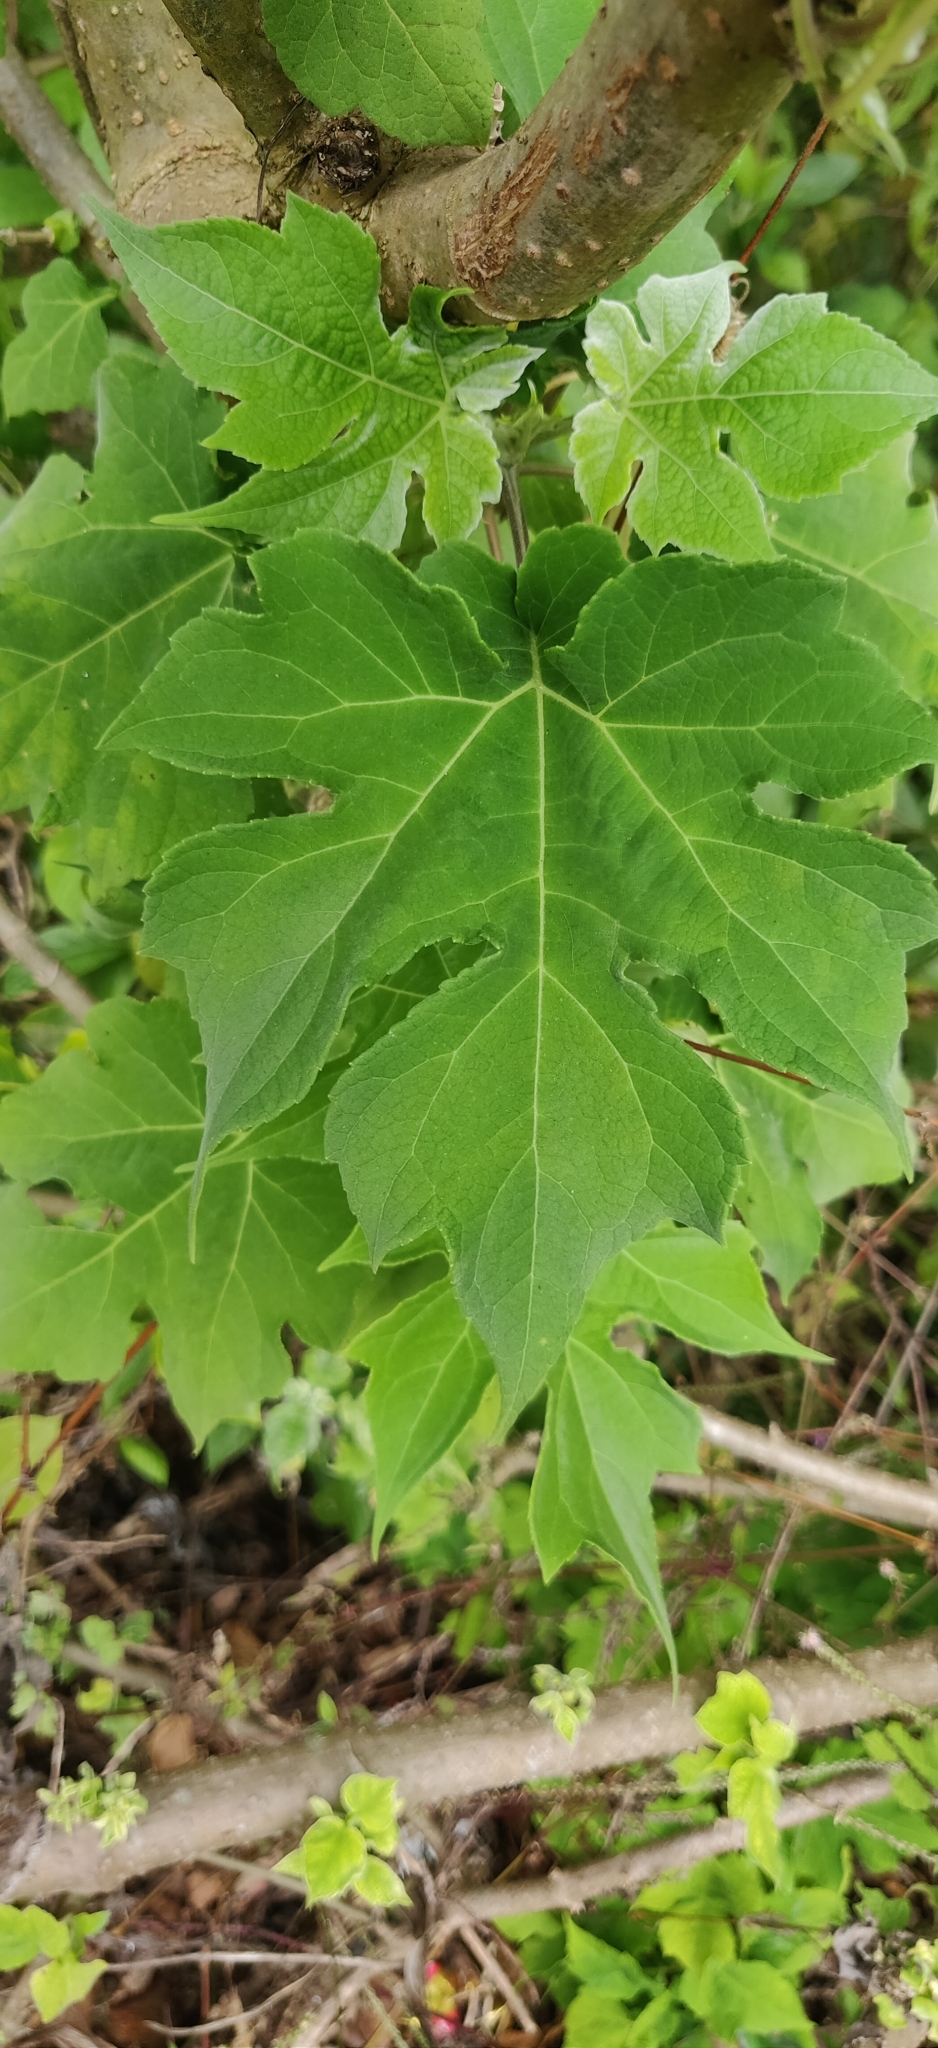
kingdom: Plantae
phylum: Tracheophyta
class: Magnoliopsida
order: Asterales
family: Asteraceae
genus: Montanoa
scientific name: Montanoa hibiscifolia
